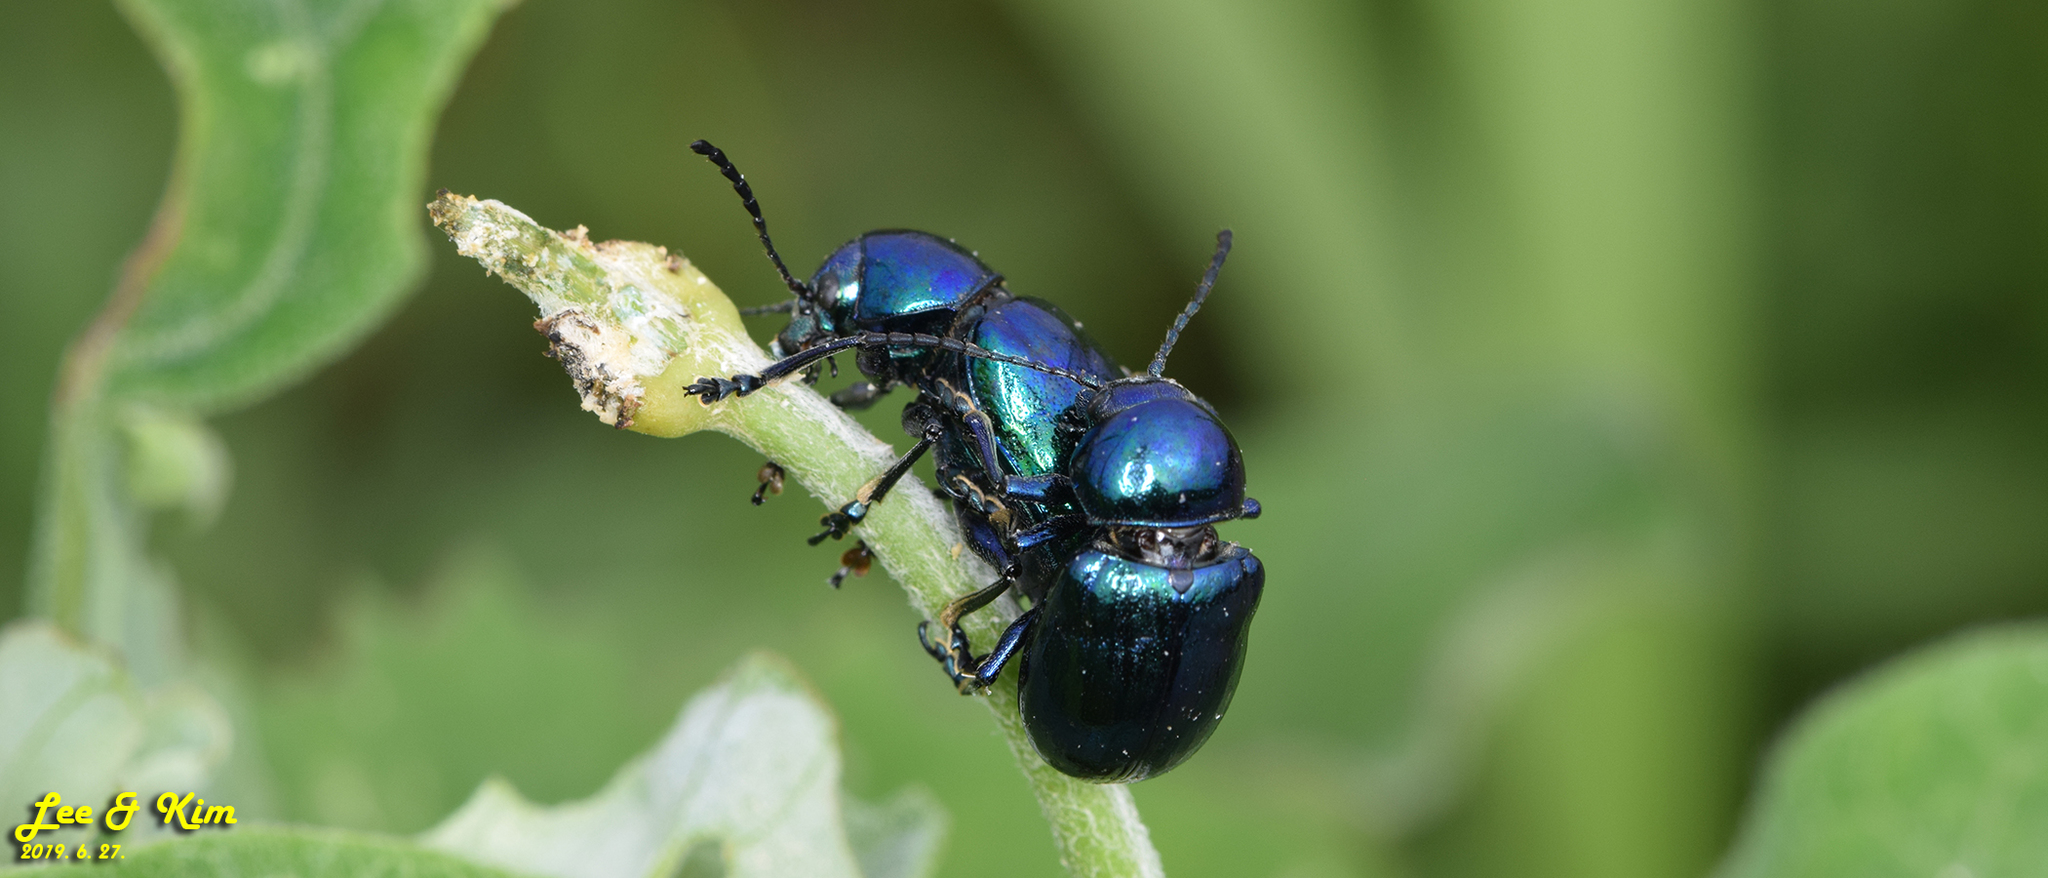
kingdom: Animalia
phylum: Arthropoda
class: Insecta
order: Coleoptera
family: Chrysomelidae
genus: Chrysochus
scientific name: Chrysochus chinensis
